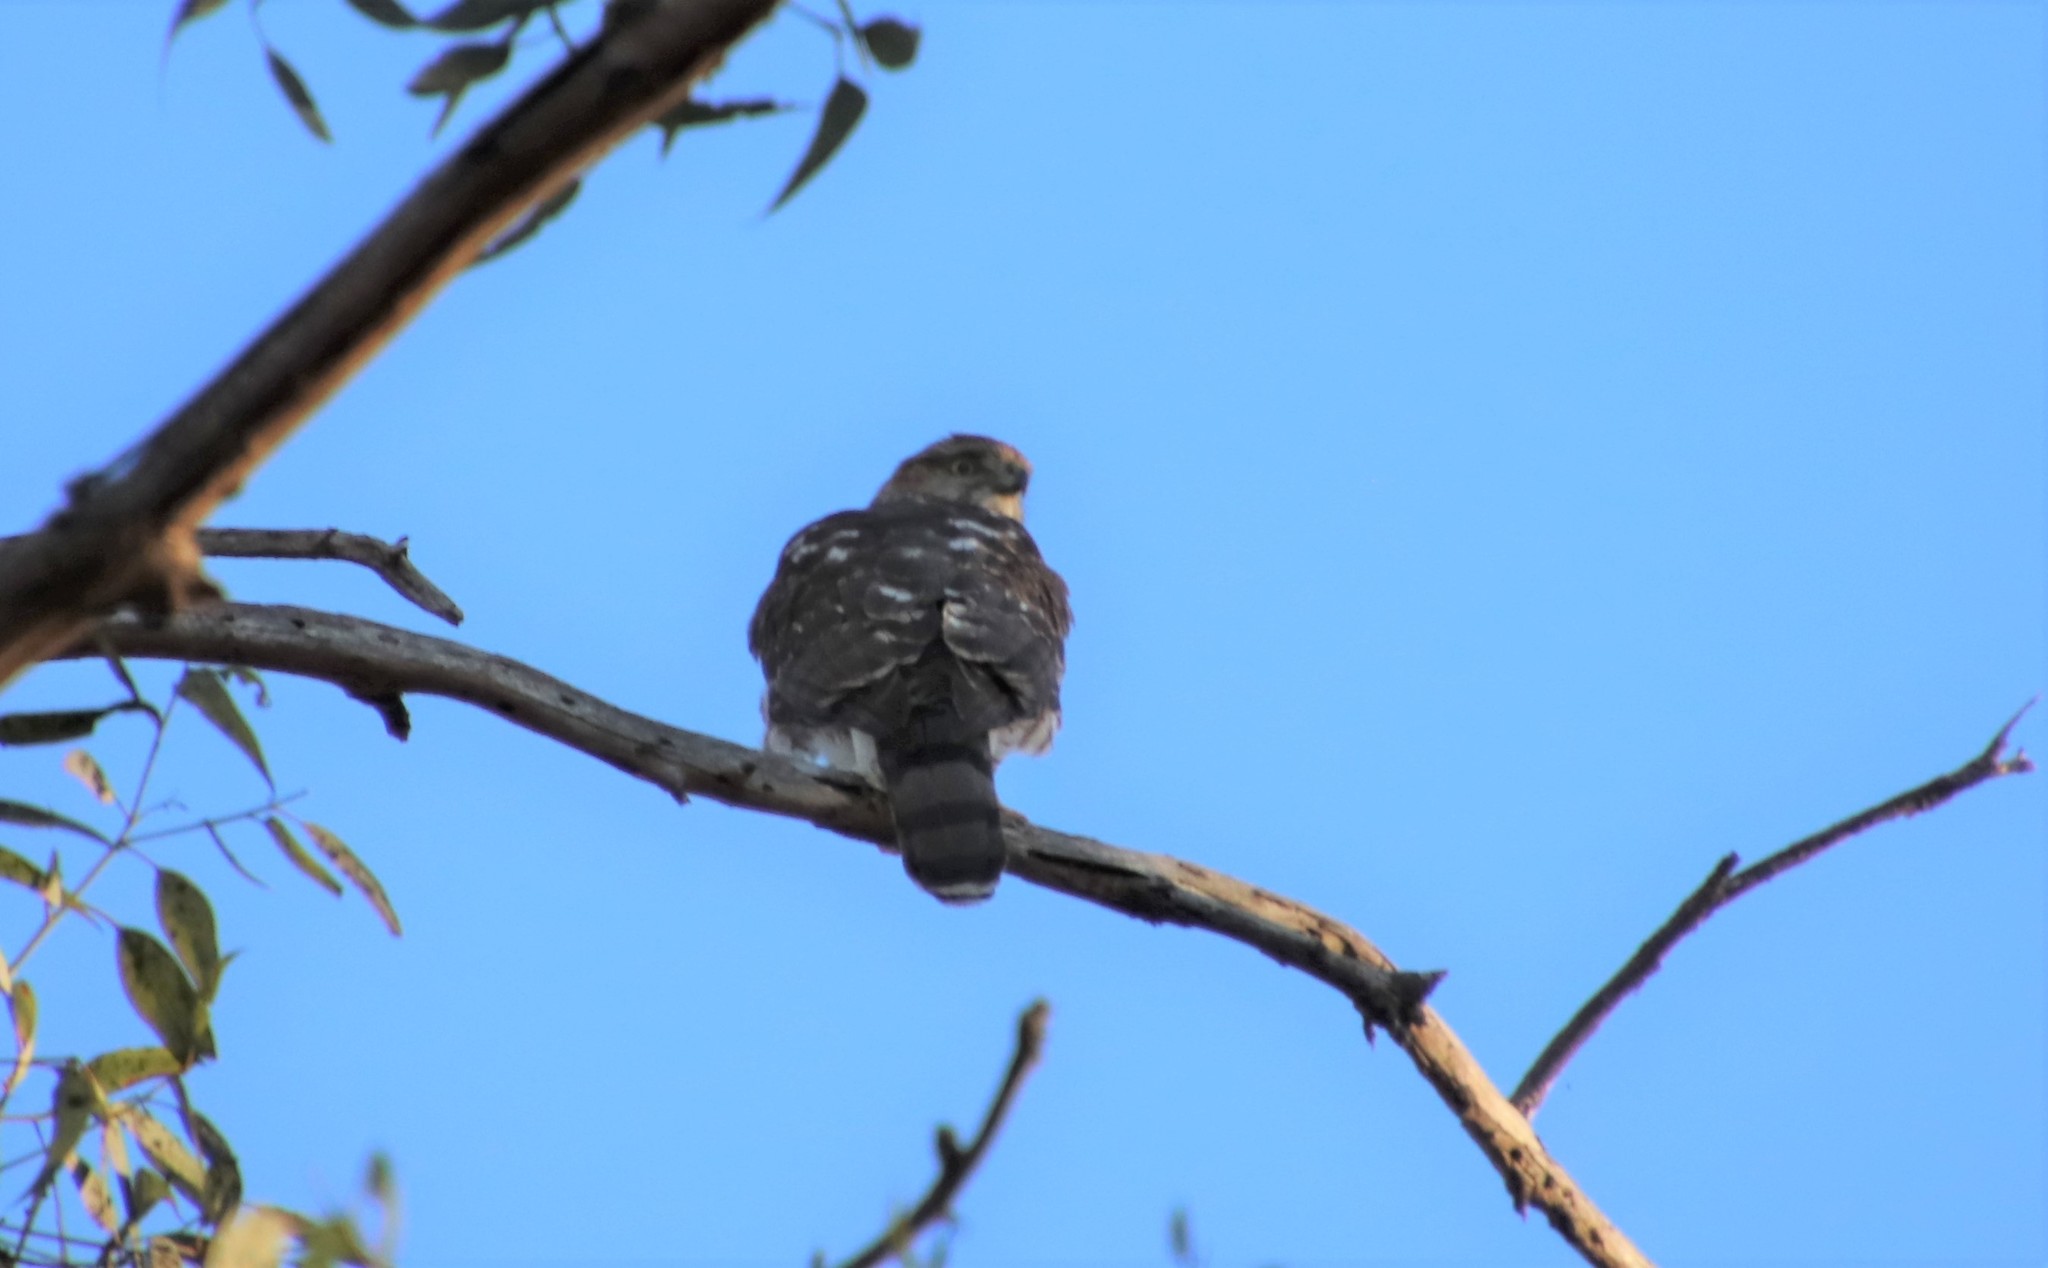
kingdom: Animalia
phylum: Chordata
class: Aves
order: Accipitriformes
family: Accipitridae
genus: Accipiter
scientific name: Accipiter cooperii
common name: Cooper's hawk
